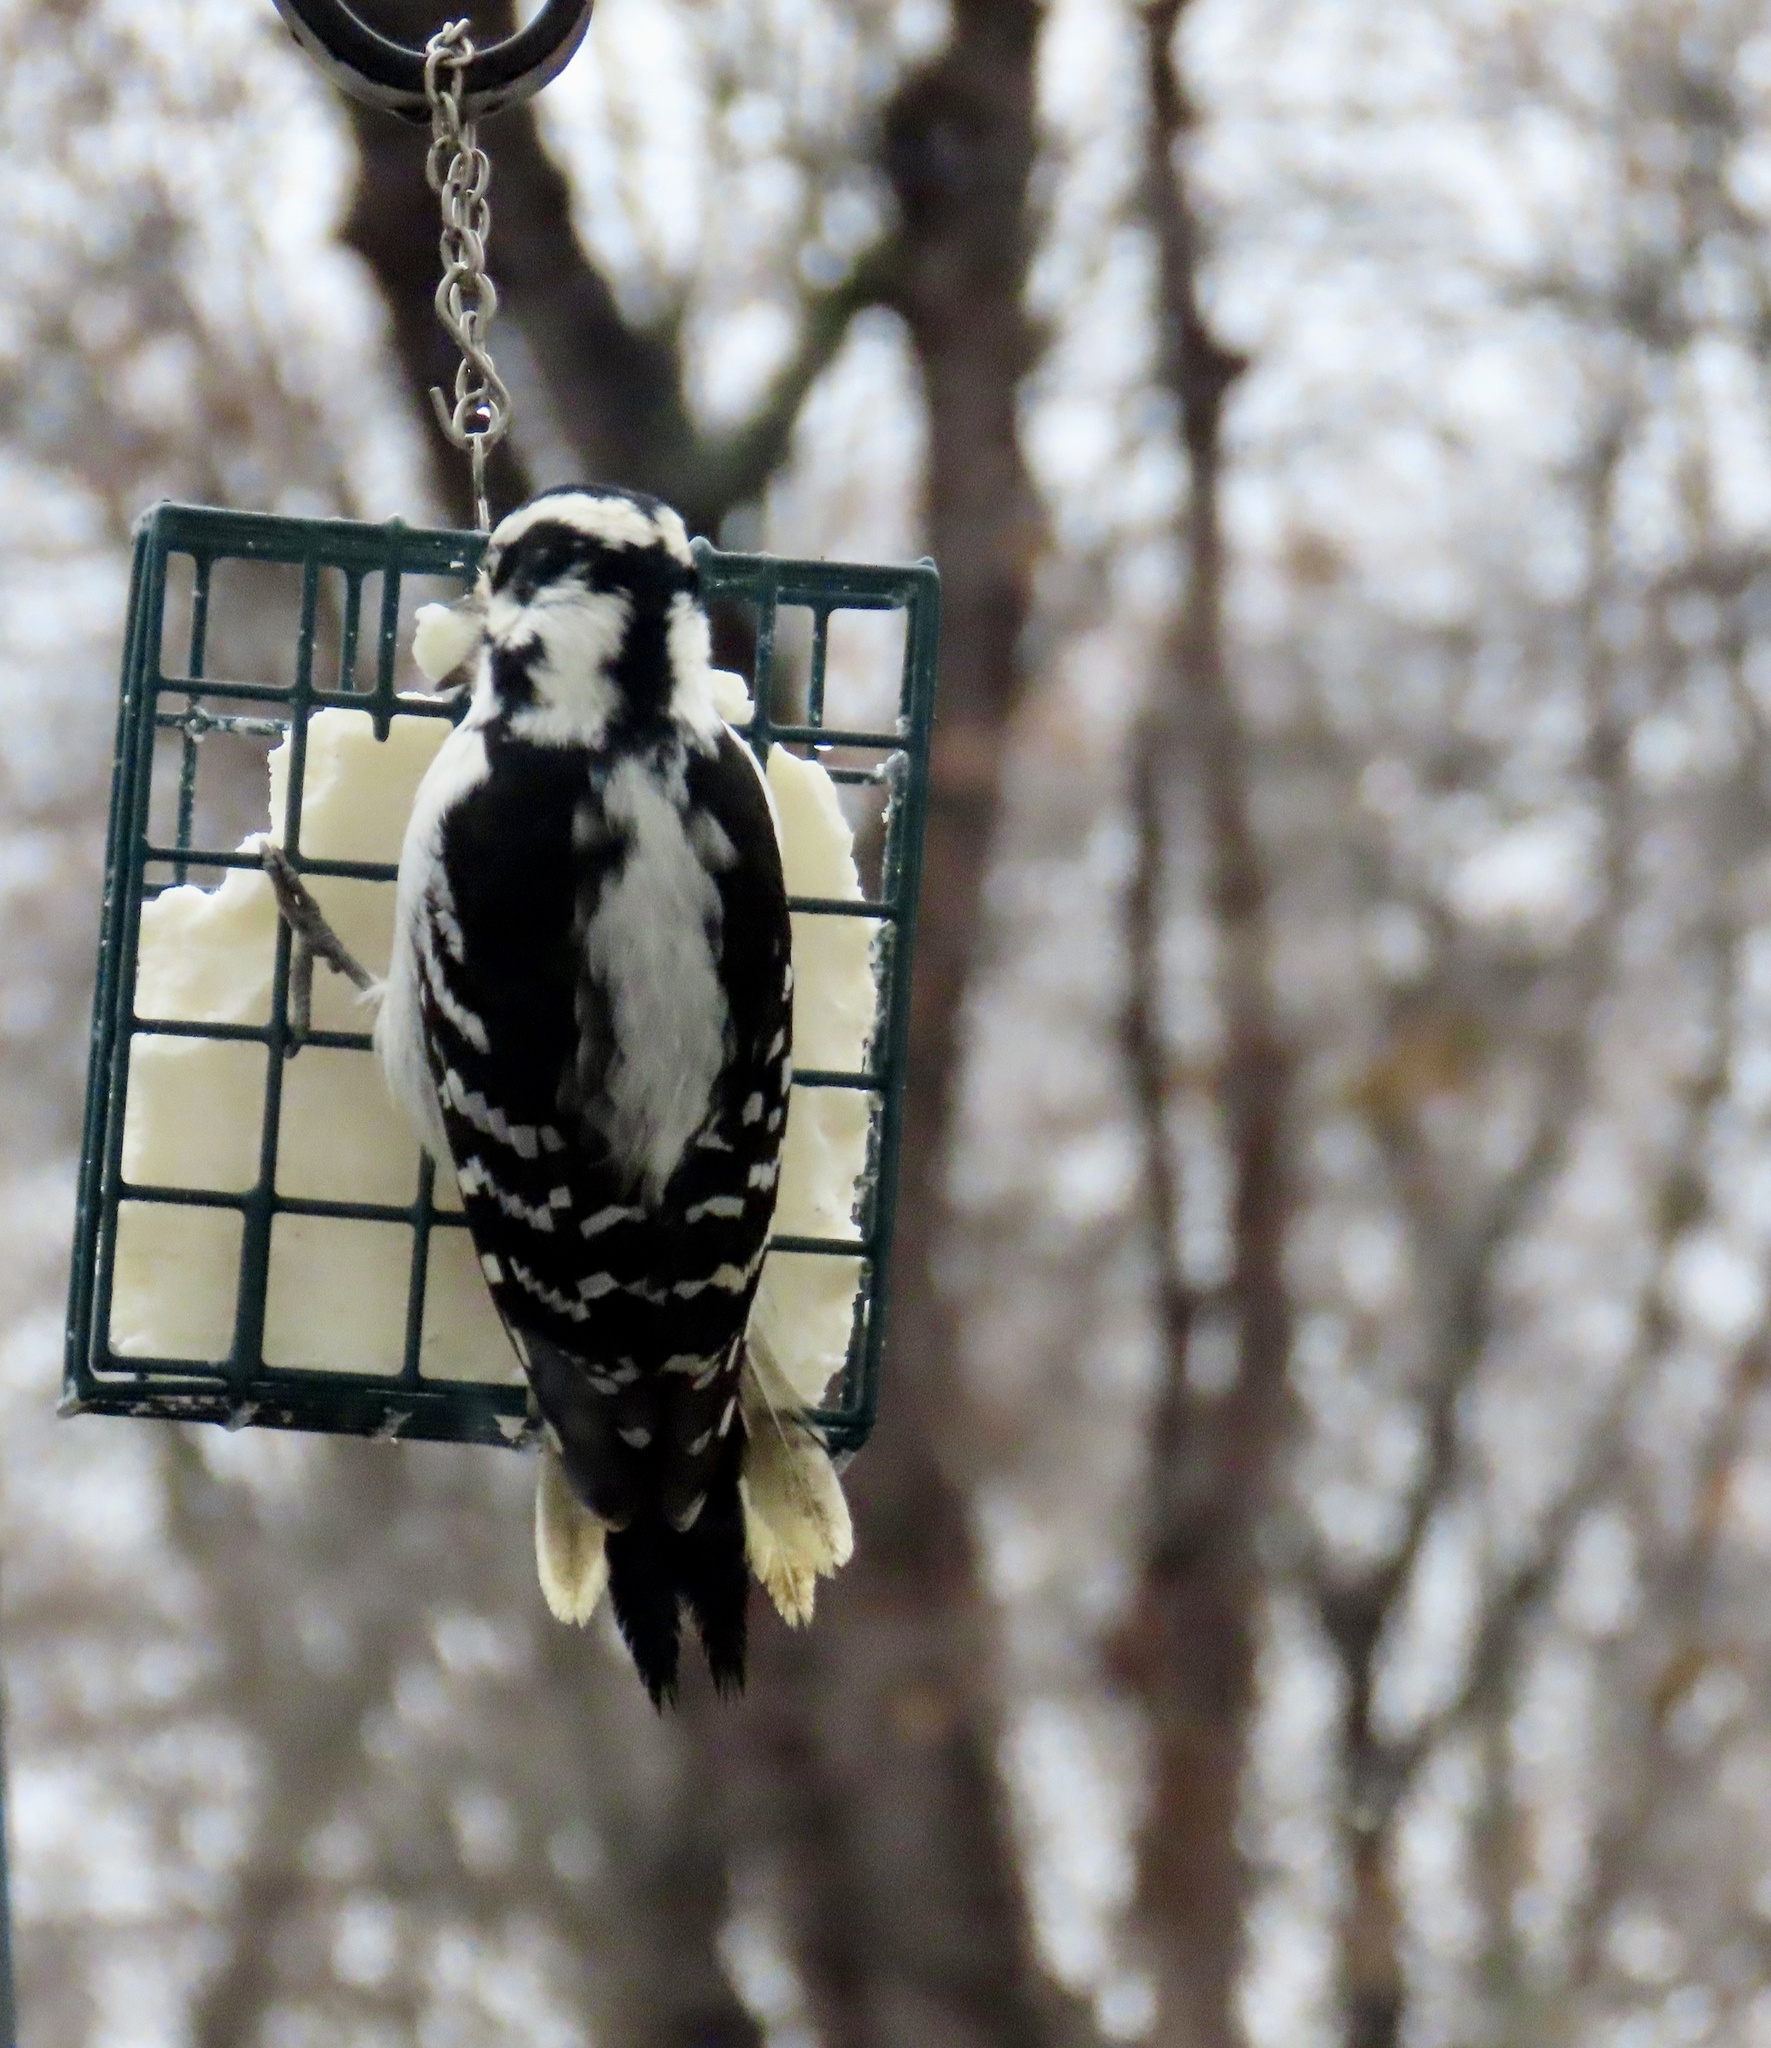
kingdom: Animalia
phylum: Chordata
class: Aves
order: Piciformes
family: Picidae
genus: Dryobates
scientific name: Dryobates pubescens
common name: Downy woodpecker
